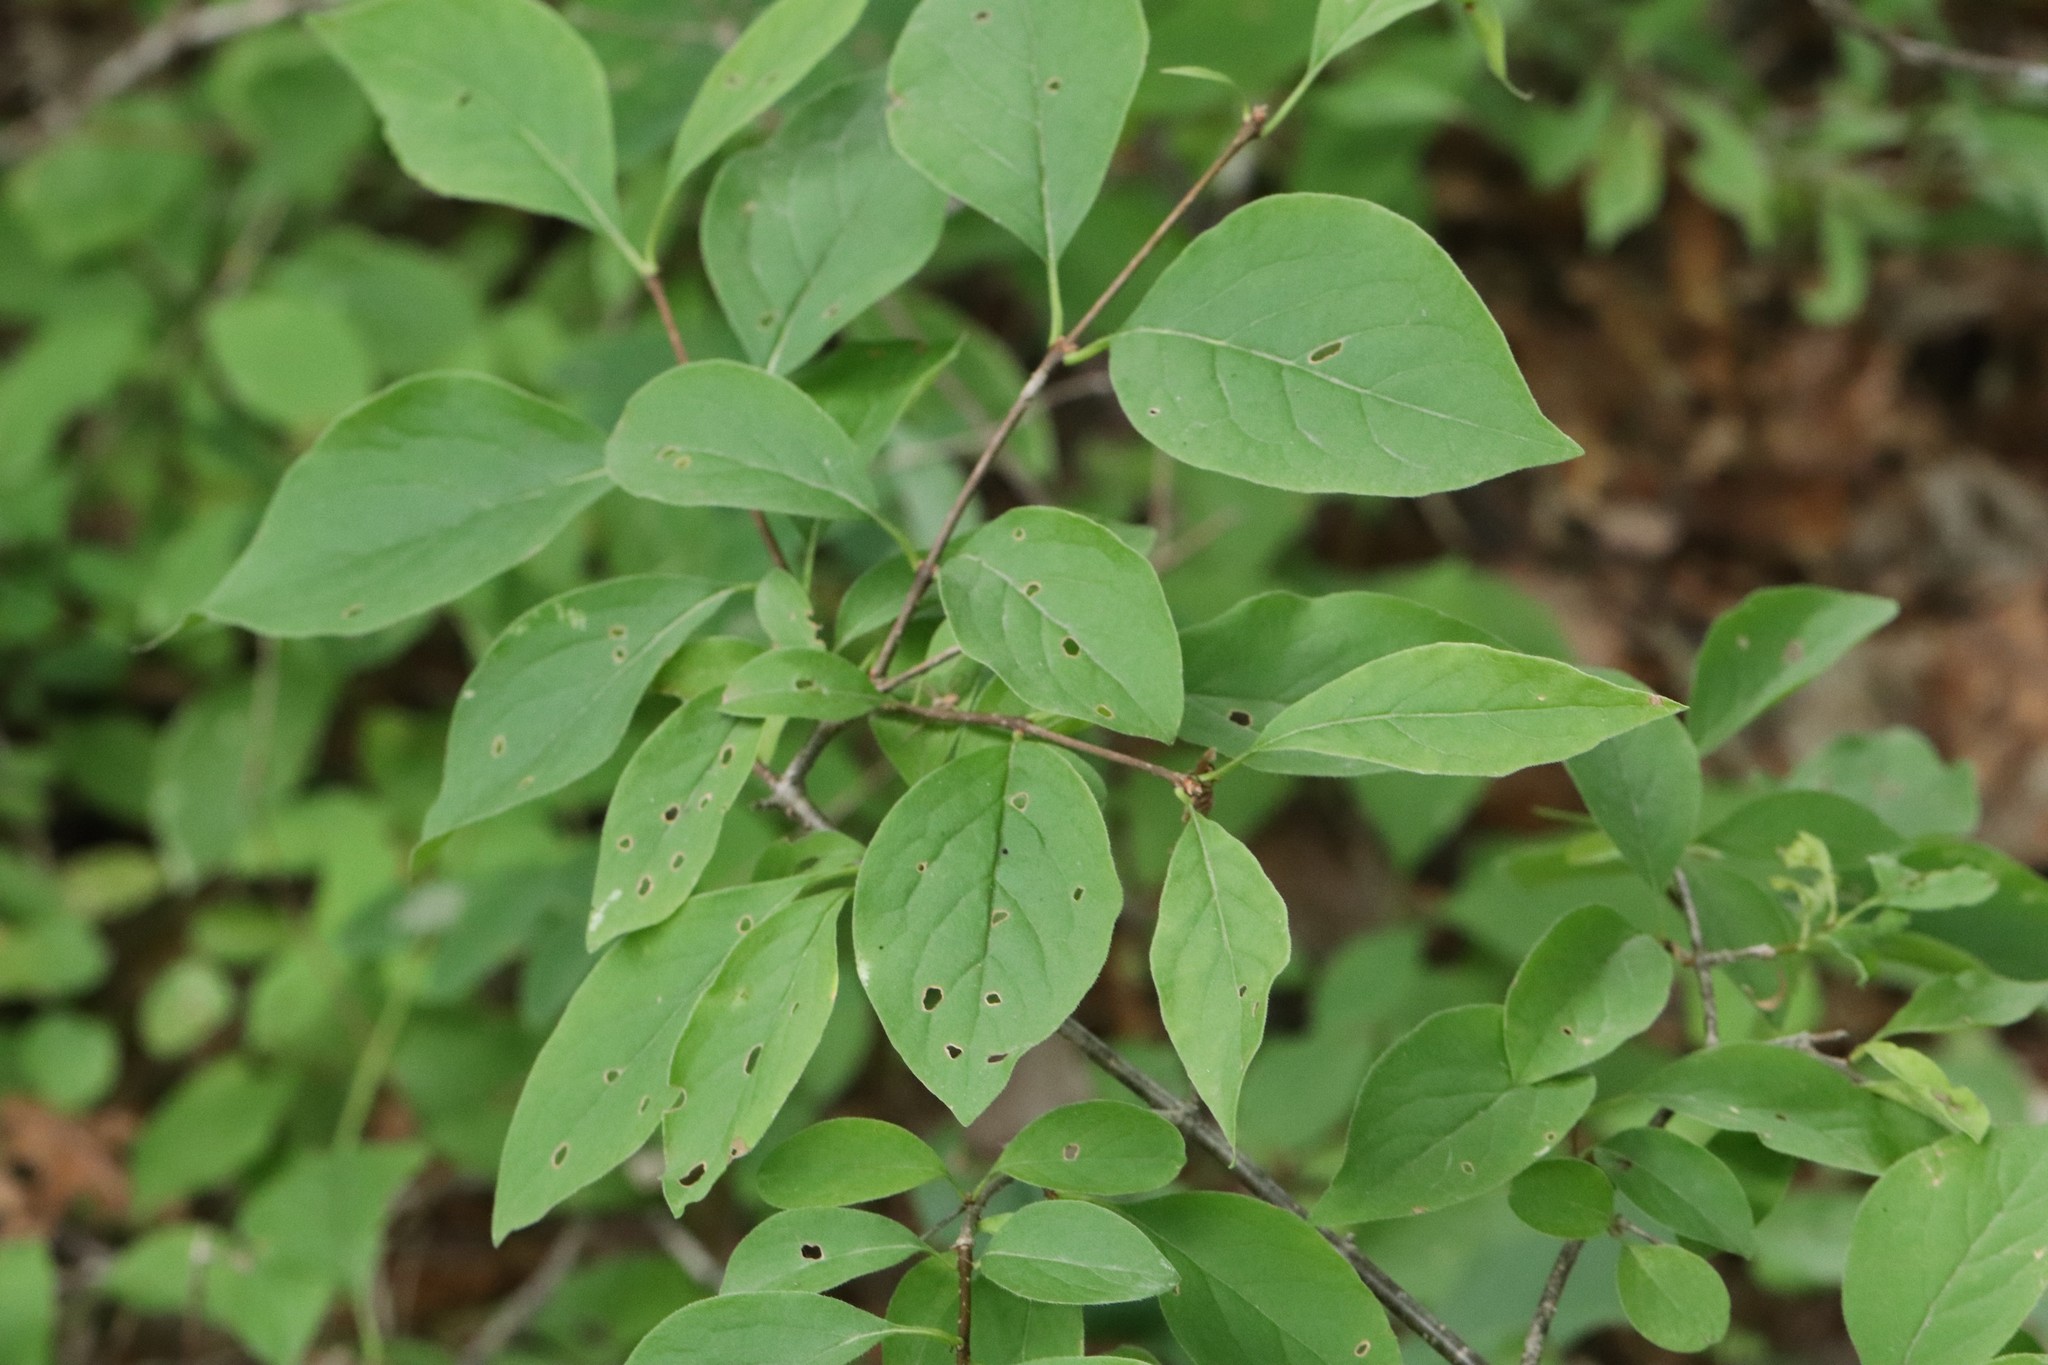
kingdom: Plantae
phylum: Tracheophyta
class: Magnoliopsida
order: Lamiales
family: Oleaceae
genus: Syringa
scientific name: Syringa reticulata
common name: Japanese tree lilac
